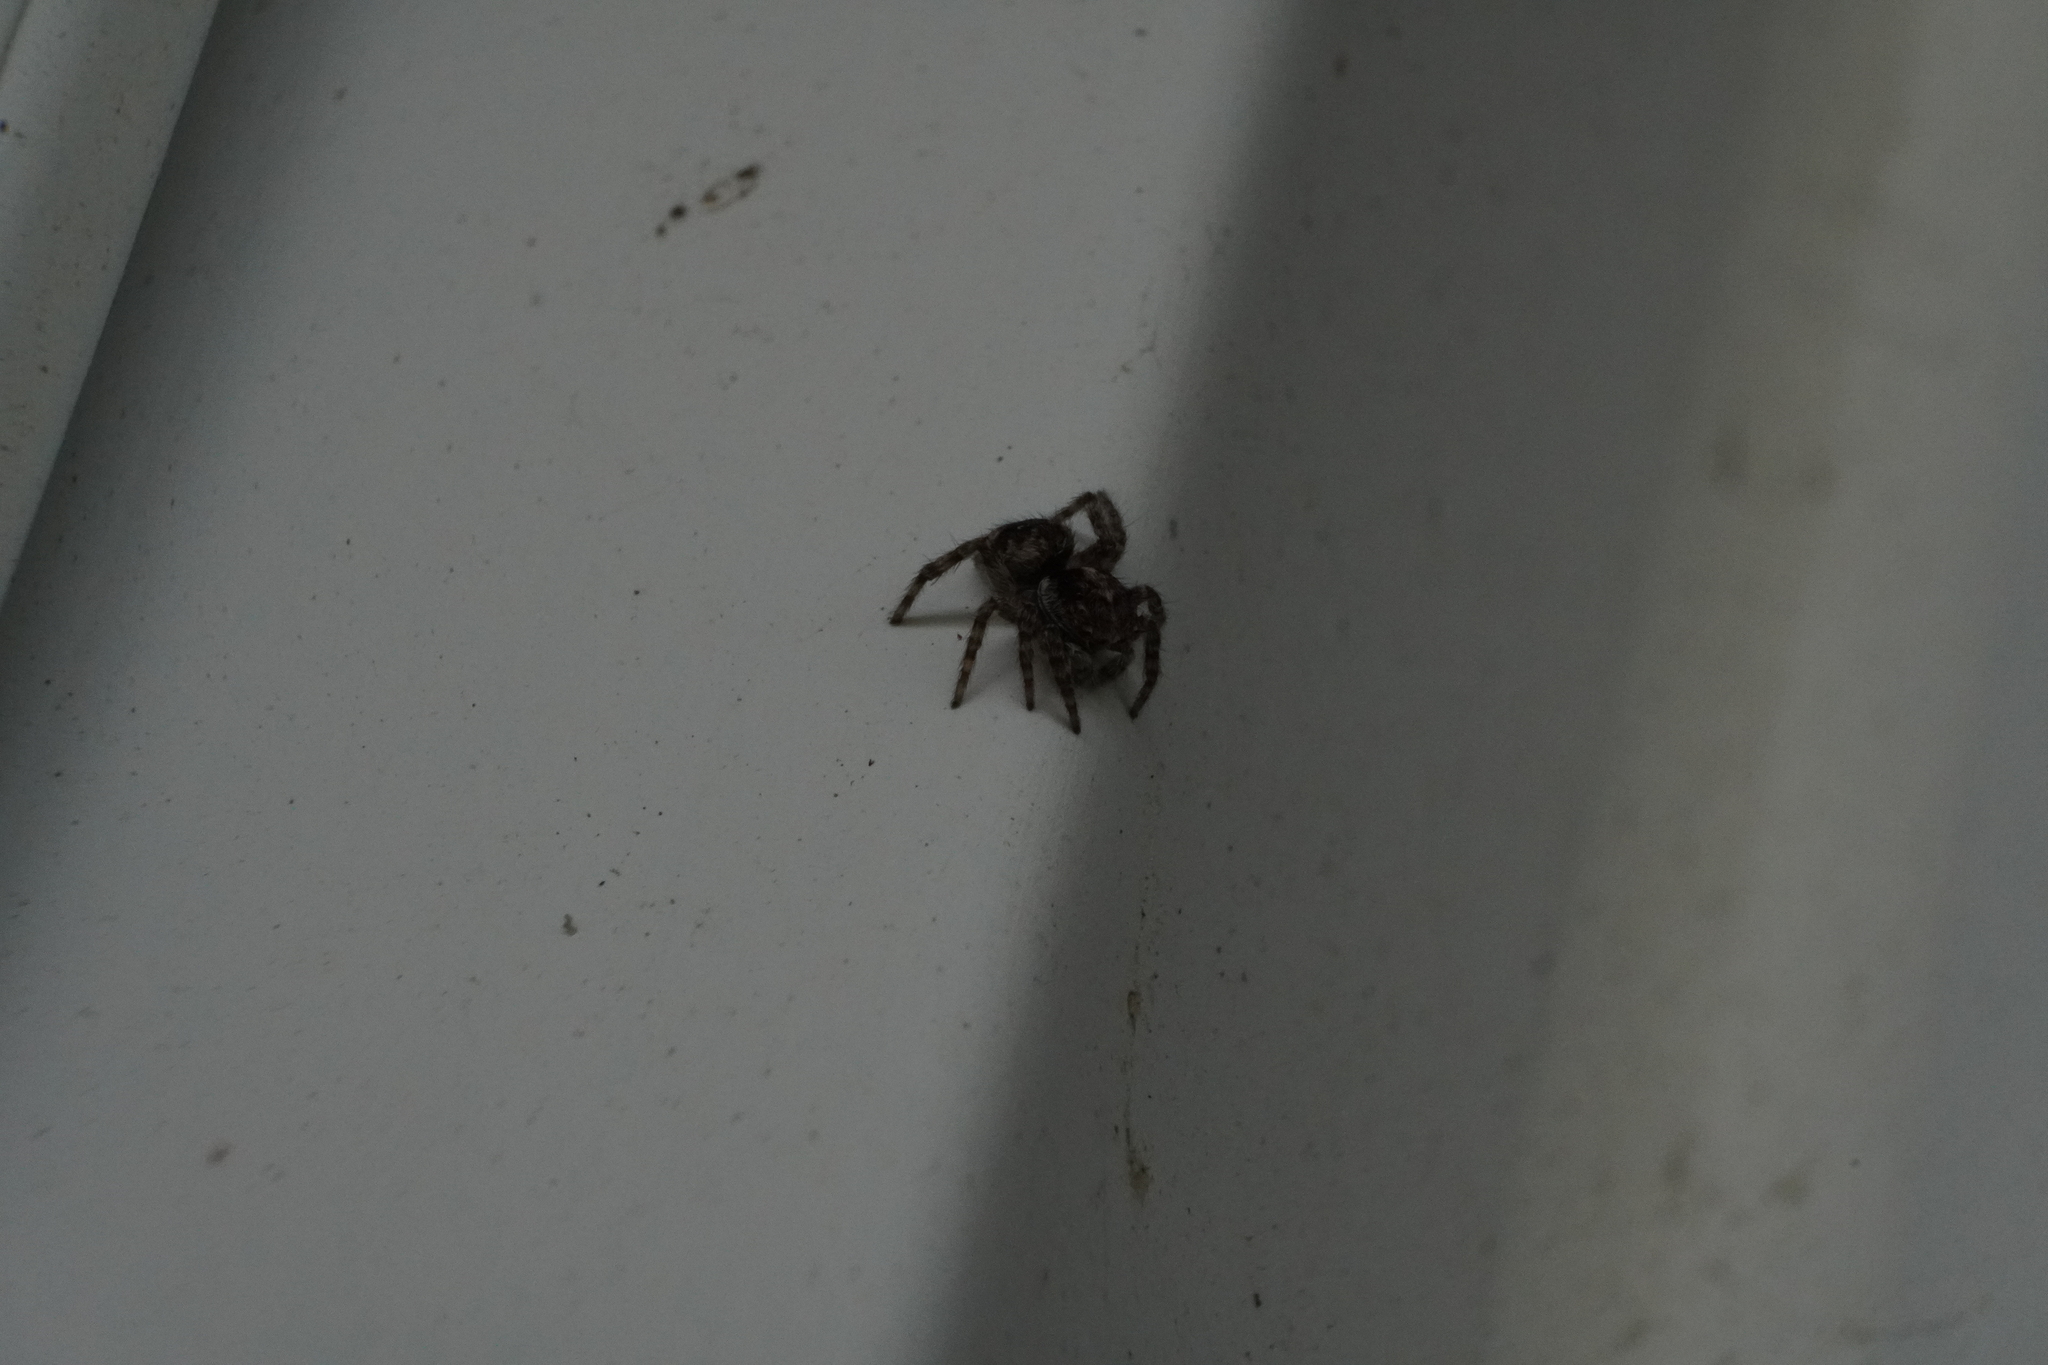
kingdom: Animalia
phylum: Arthropoda
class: Arachnida
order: Araneae
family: Salticidae
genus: Attulus
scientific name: Attulus fasciger
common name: Asiatic wall jumping spider
